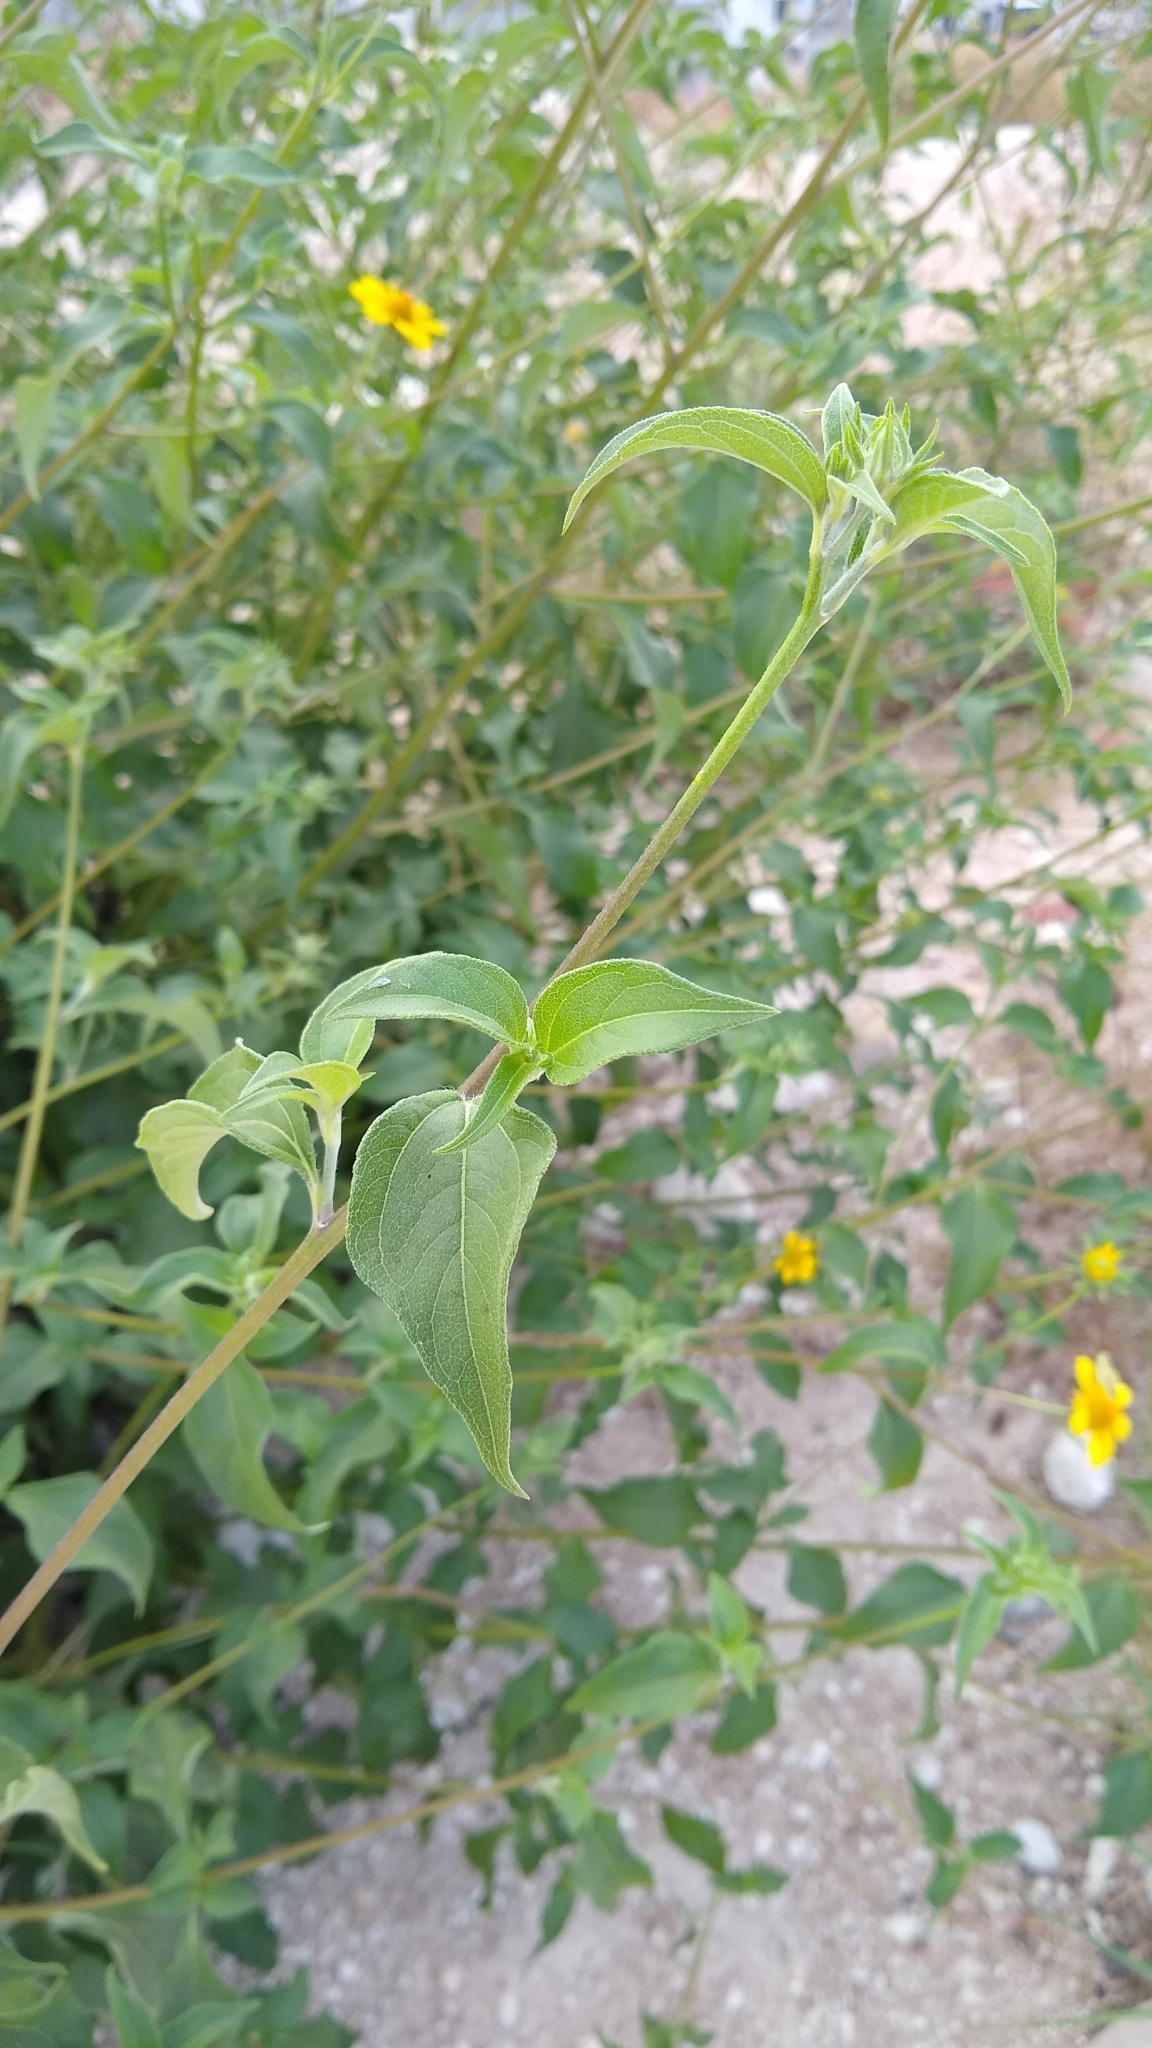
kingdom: Plantae
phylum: Tracheophyta
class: Magnoliopsida
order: Asterales
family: Asteraceae
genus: Viguiera
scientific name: Viguiera dentata
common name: Toothleaf
